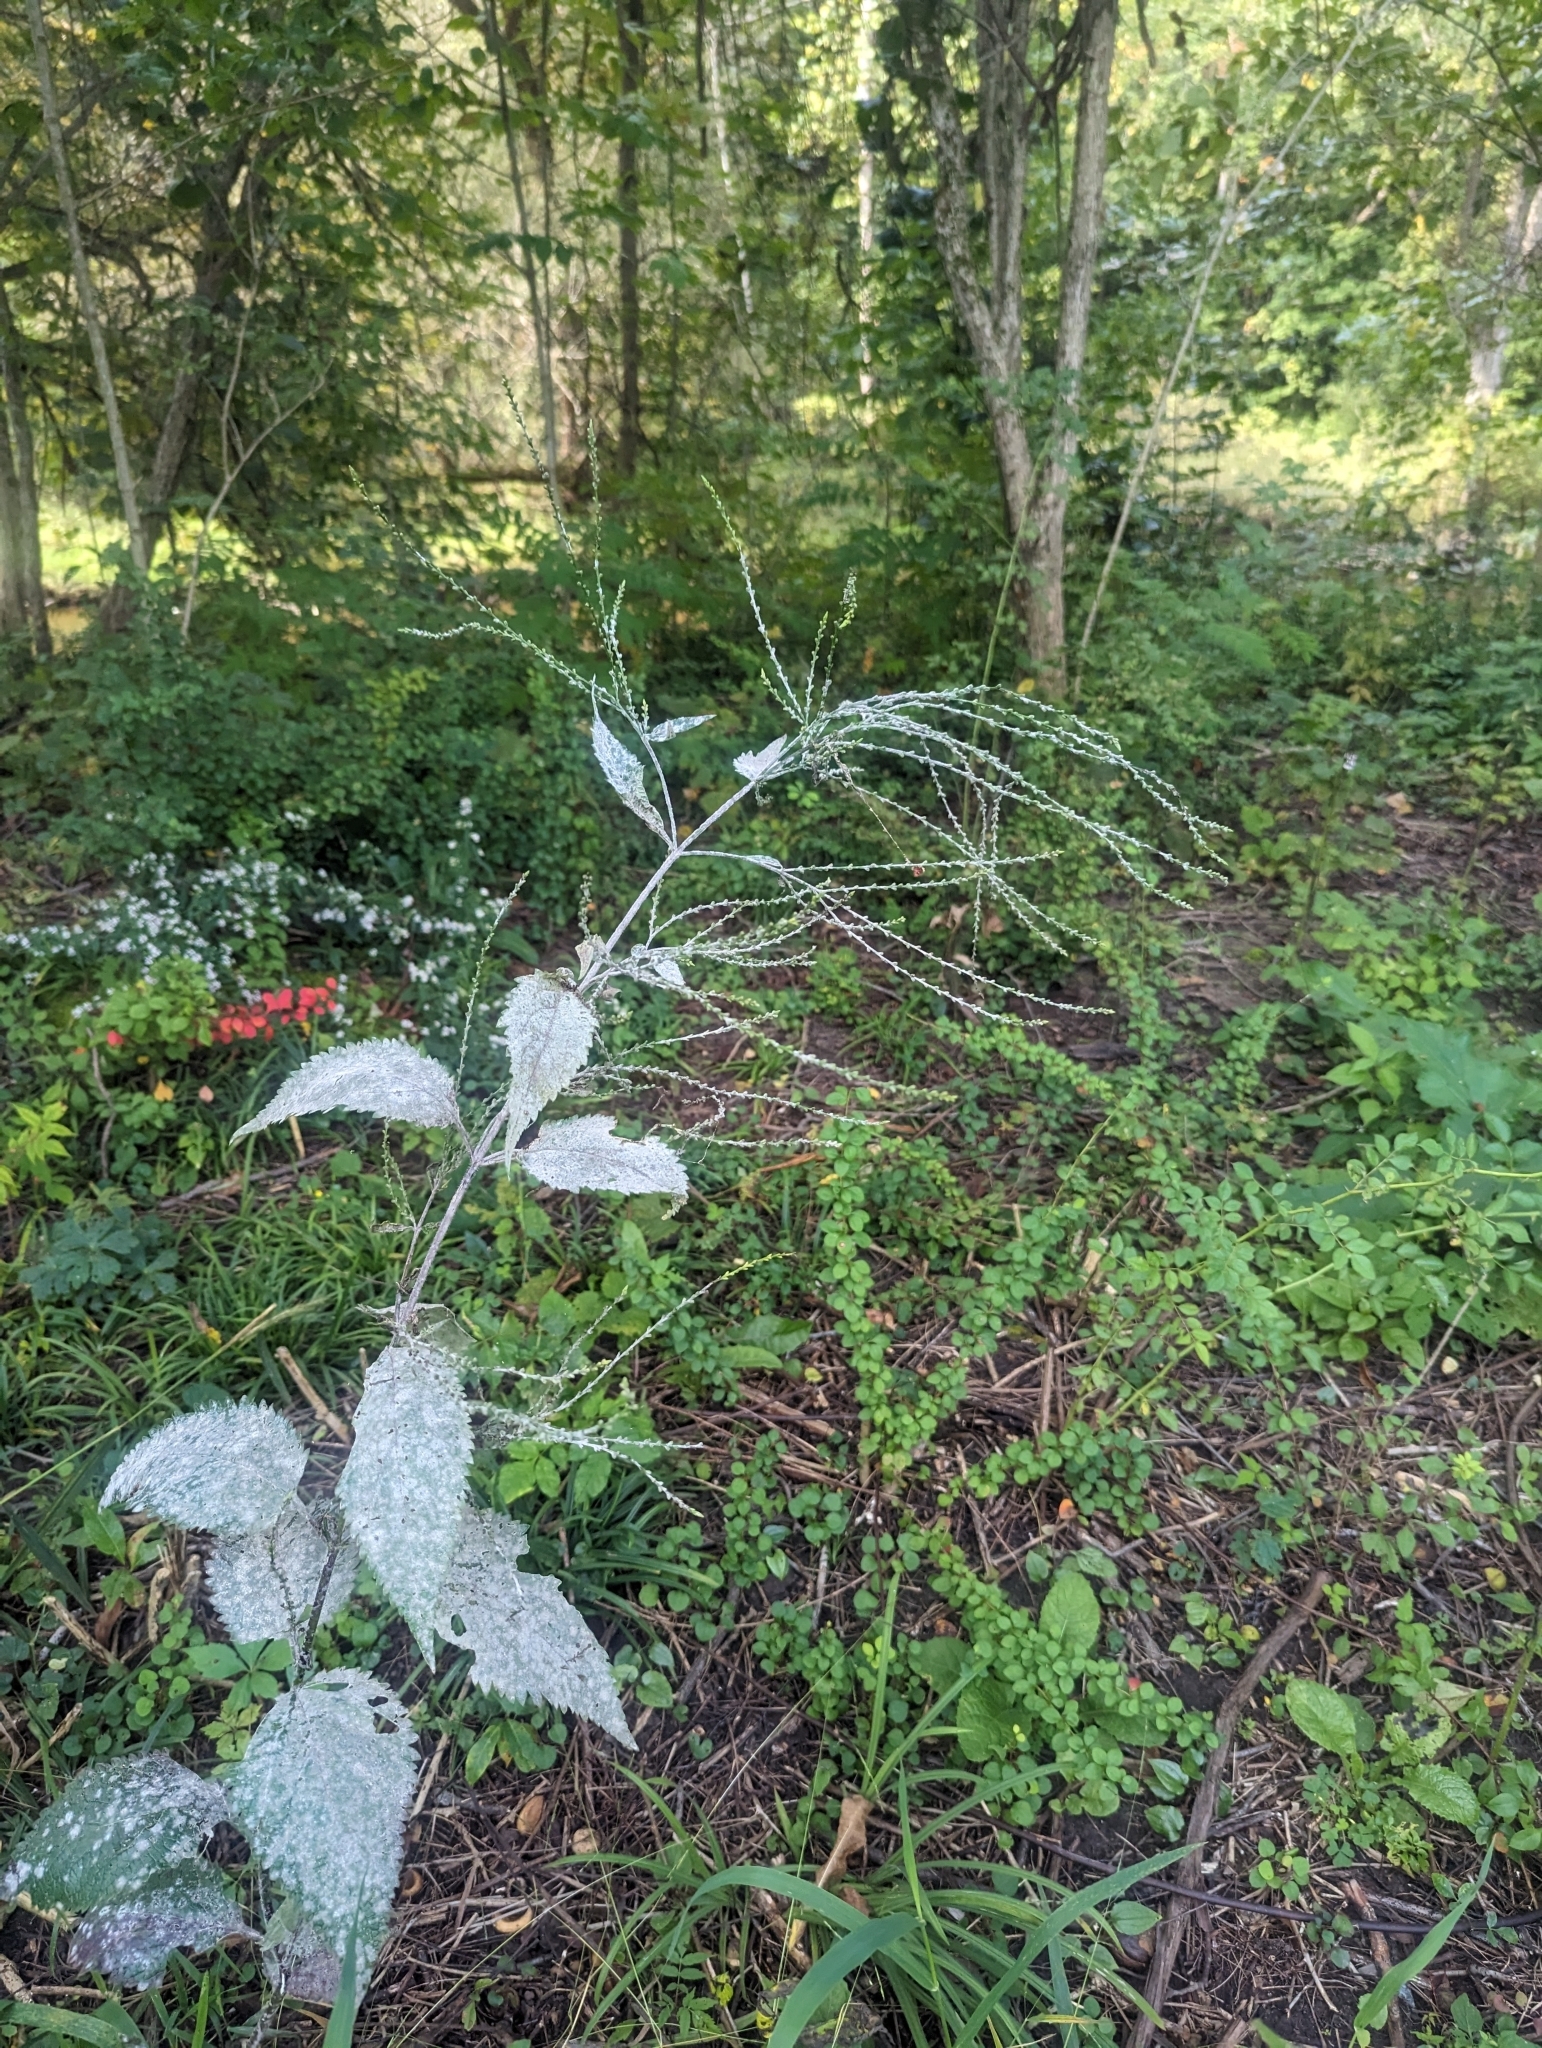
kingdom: Plantae
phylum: Tracheophyta
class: Magnoliopsida
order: Lamiales
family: Verbenaceae
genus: Verbena
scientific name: Verbena urticifolia
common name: Nettle-leaved vervain
